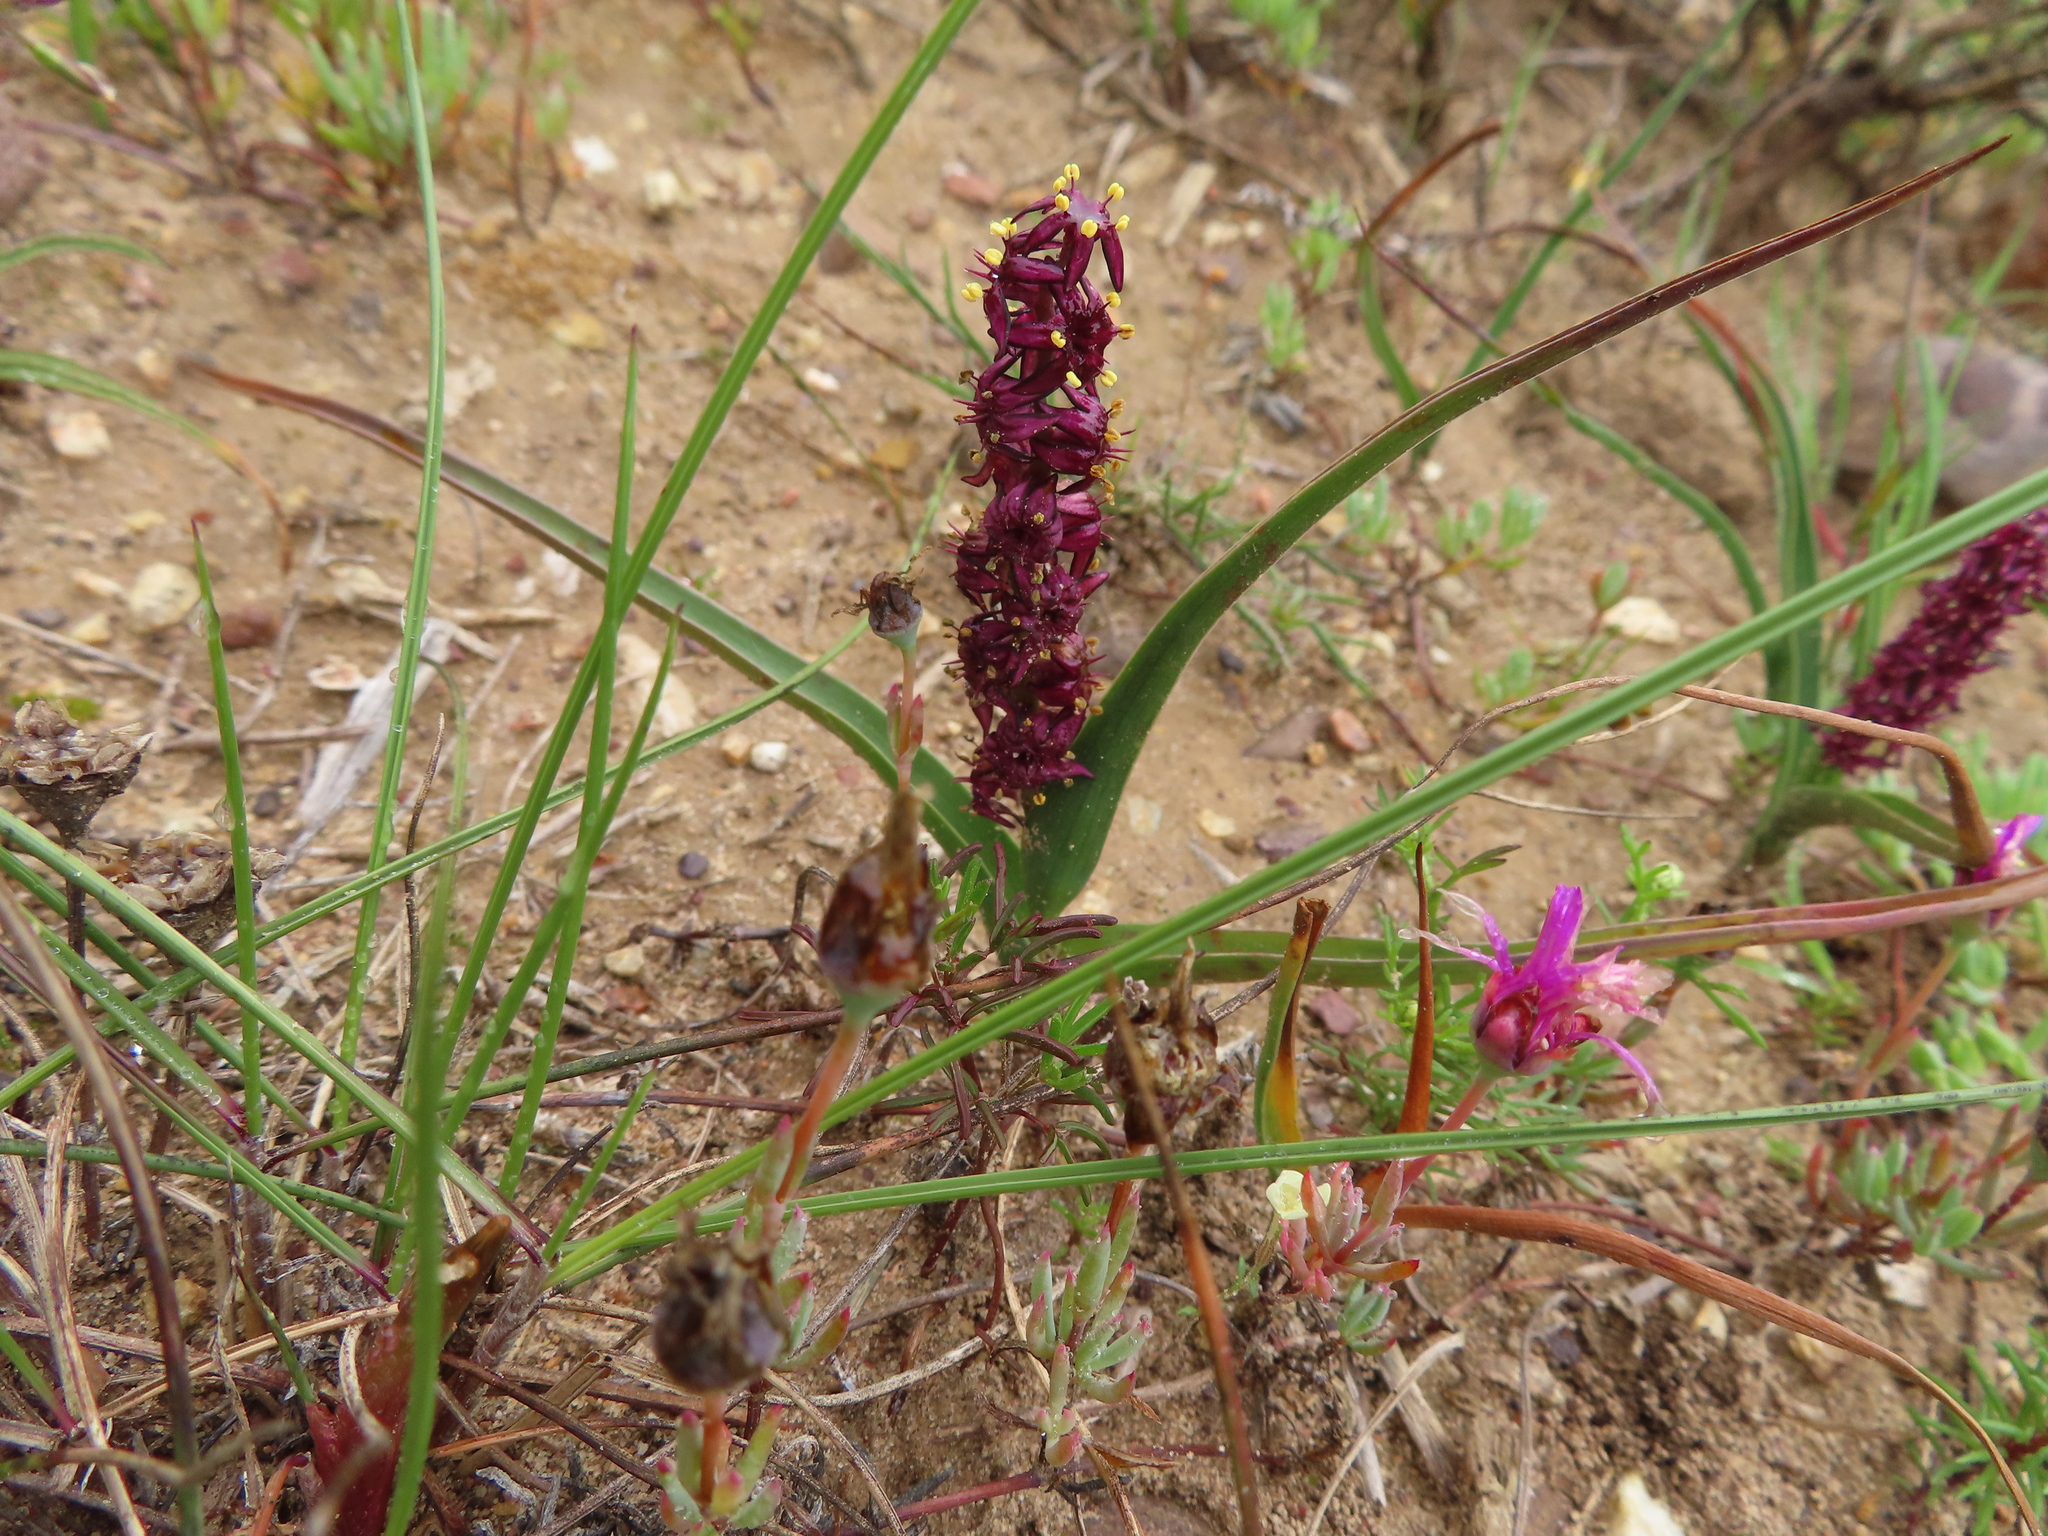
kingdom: Plantae
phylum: Tracheophyta
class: Liliopsida
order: Liliales
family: Colchicaceae
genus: Wurmbea
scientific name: Wurmbea recurva
